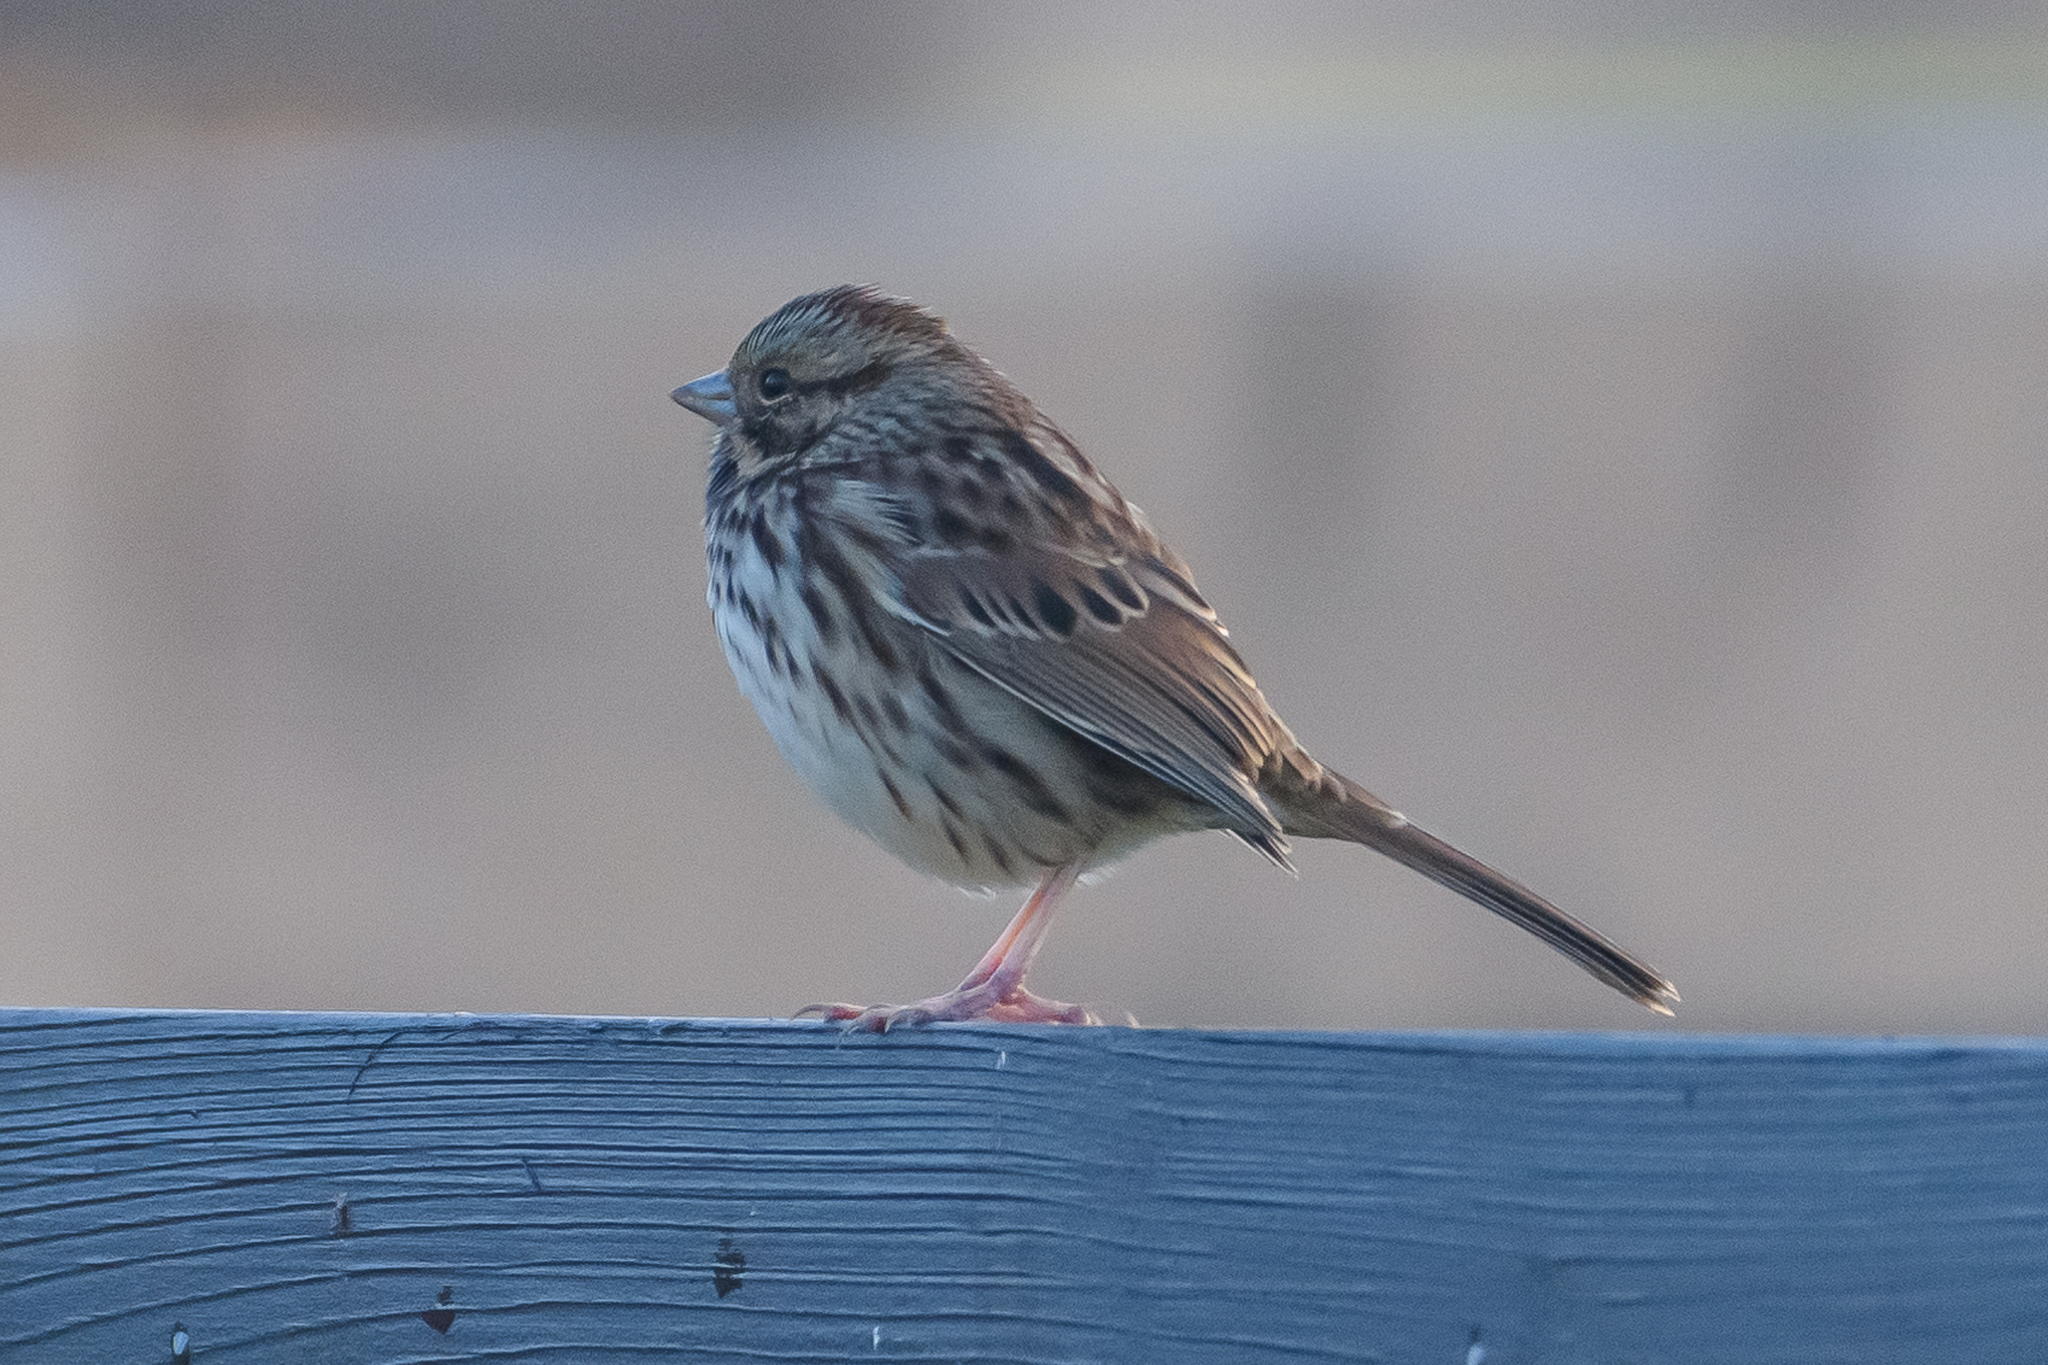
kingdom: Animalia
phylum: Chordata
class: Aves
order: Passeriformes
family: Passerellidae
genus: Melospiza
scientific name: Melospiza melodia
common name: Song sparrow
